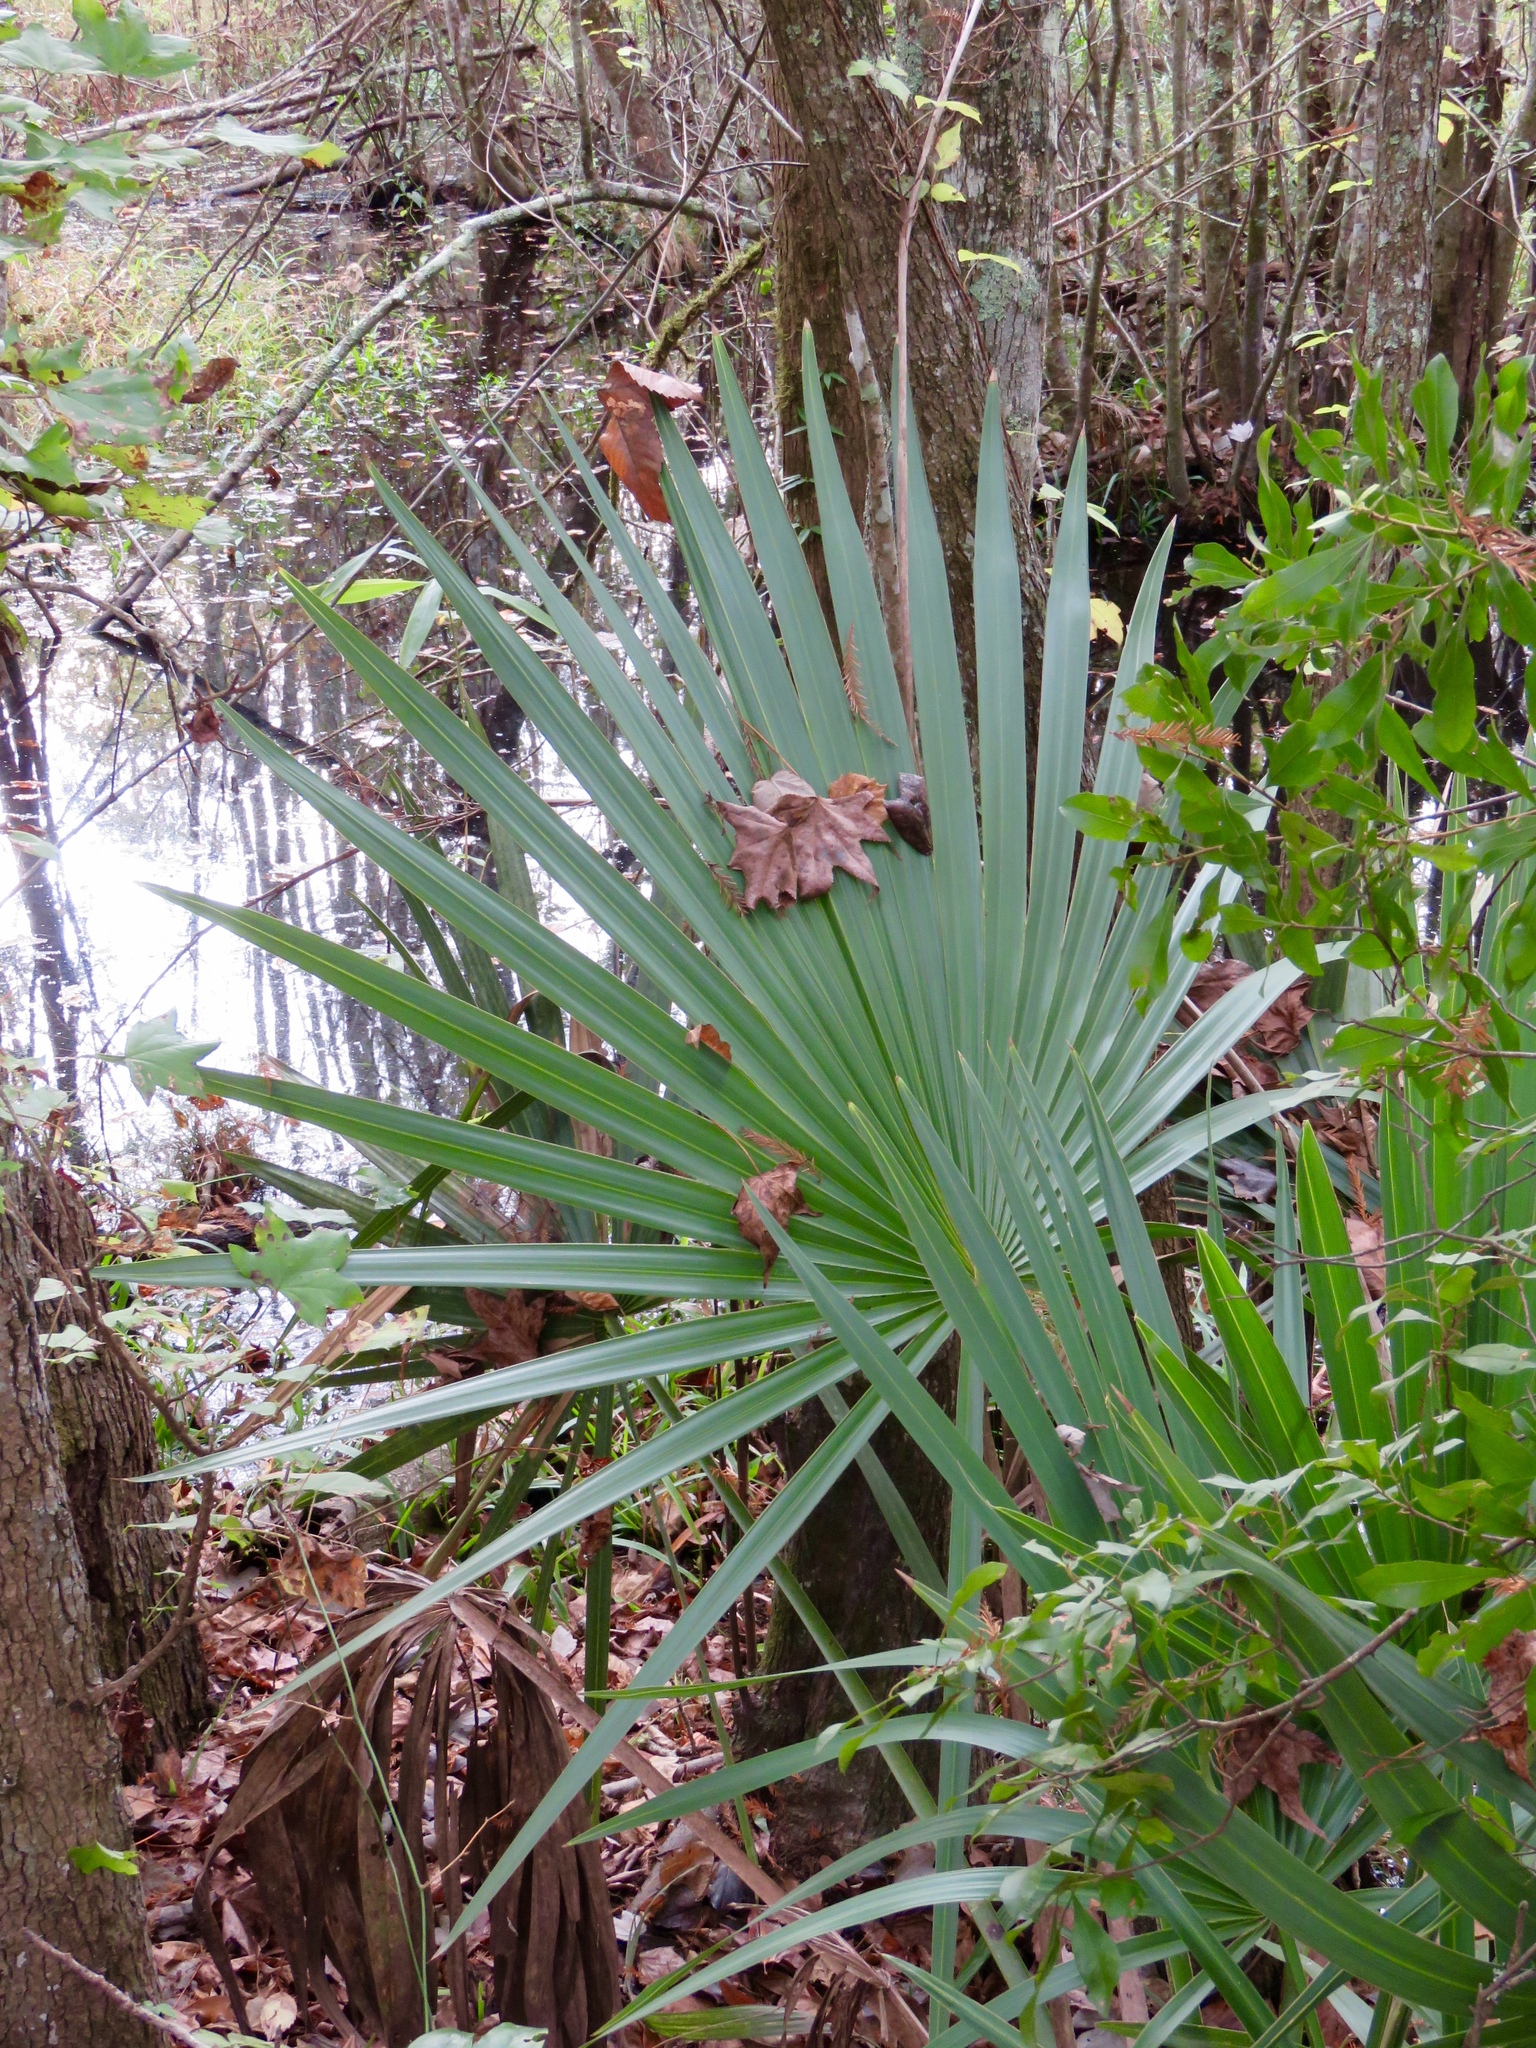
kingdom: Plantae
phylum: Tracheophyta
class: Liliopsida
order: Arecales
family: Arecaceae
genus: Sabal
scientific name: Sabal minor
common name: Dwarf palmetto
